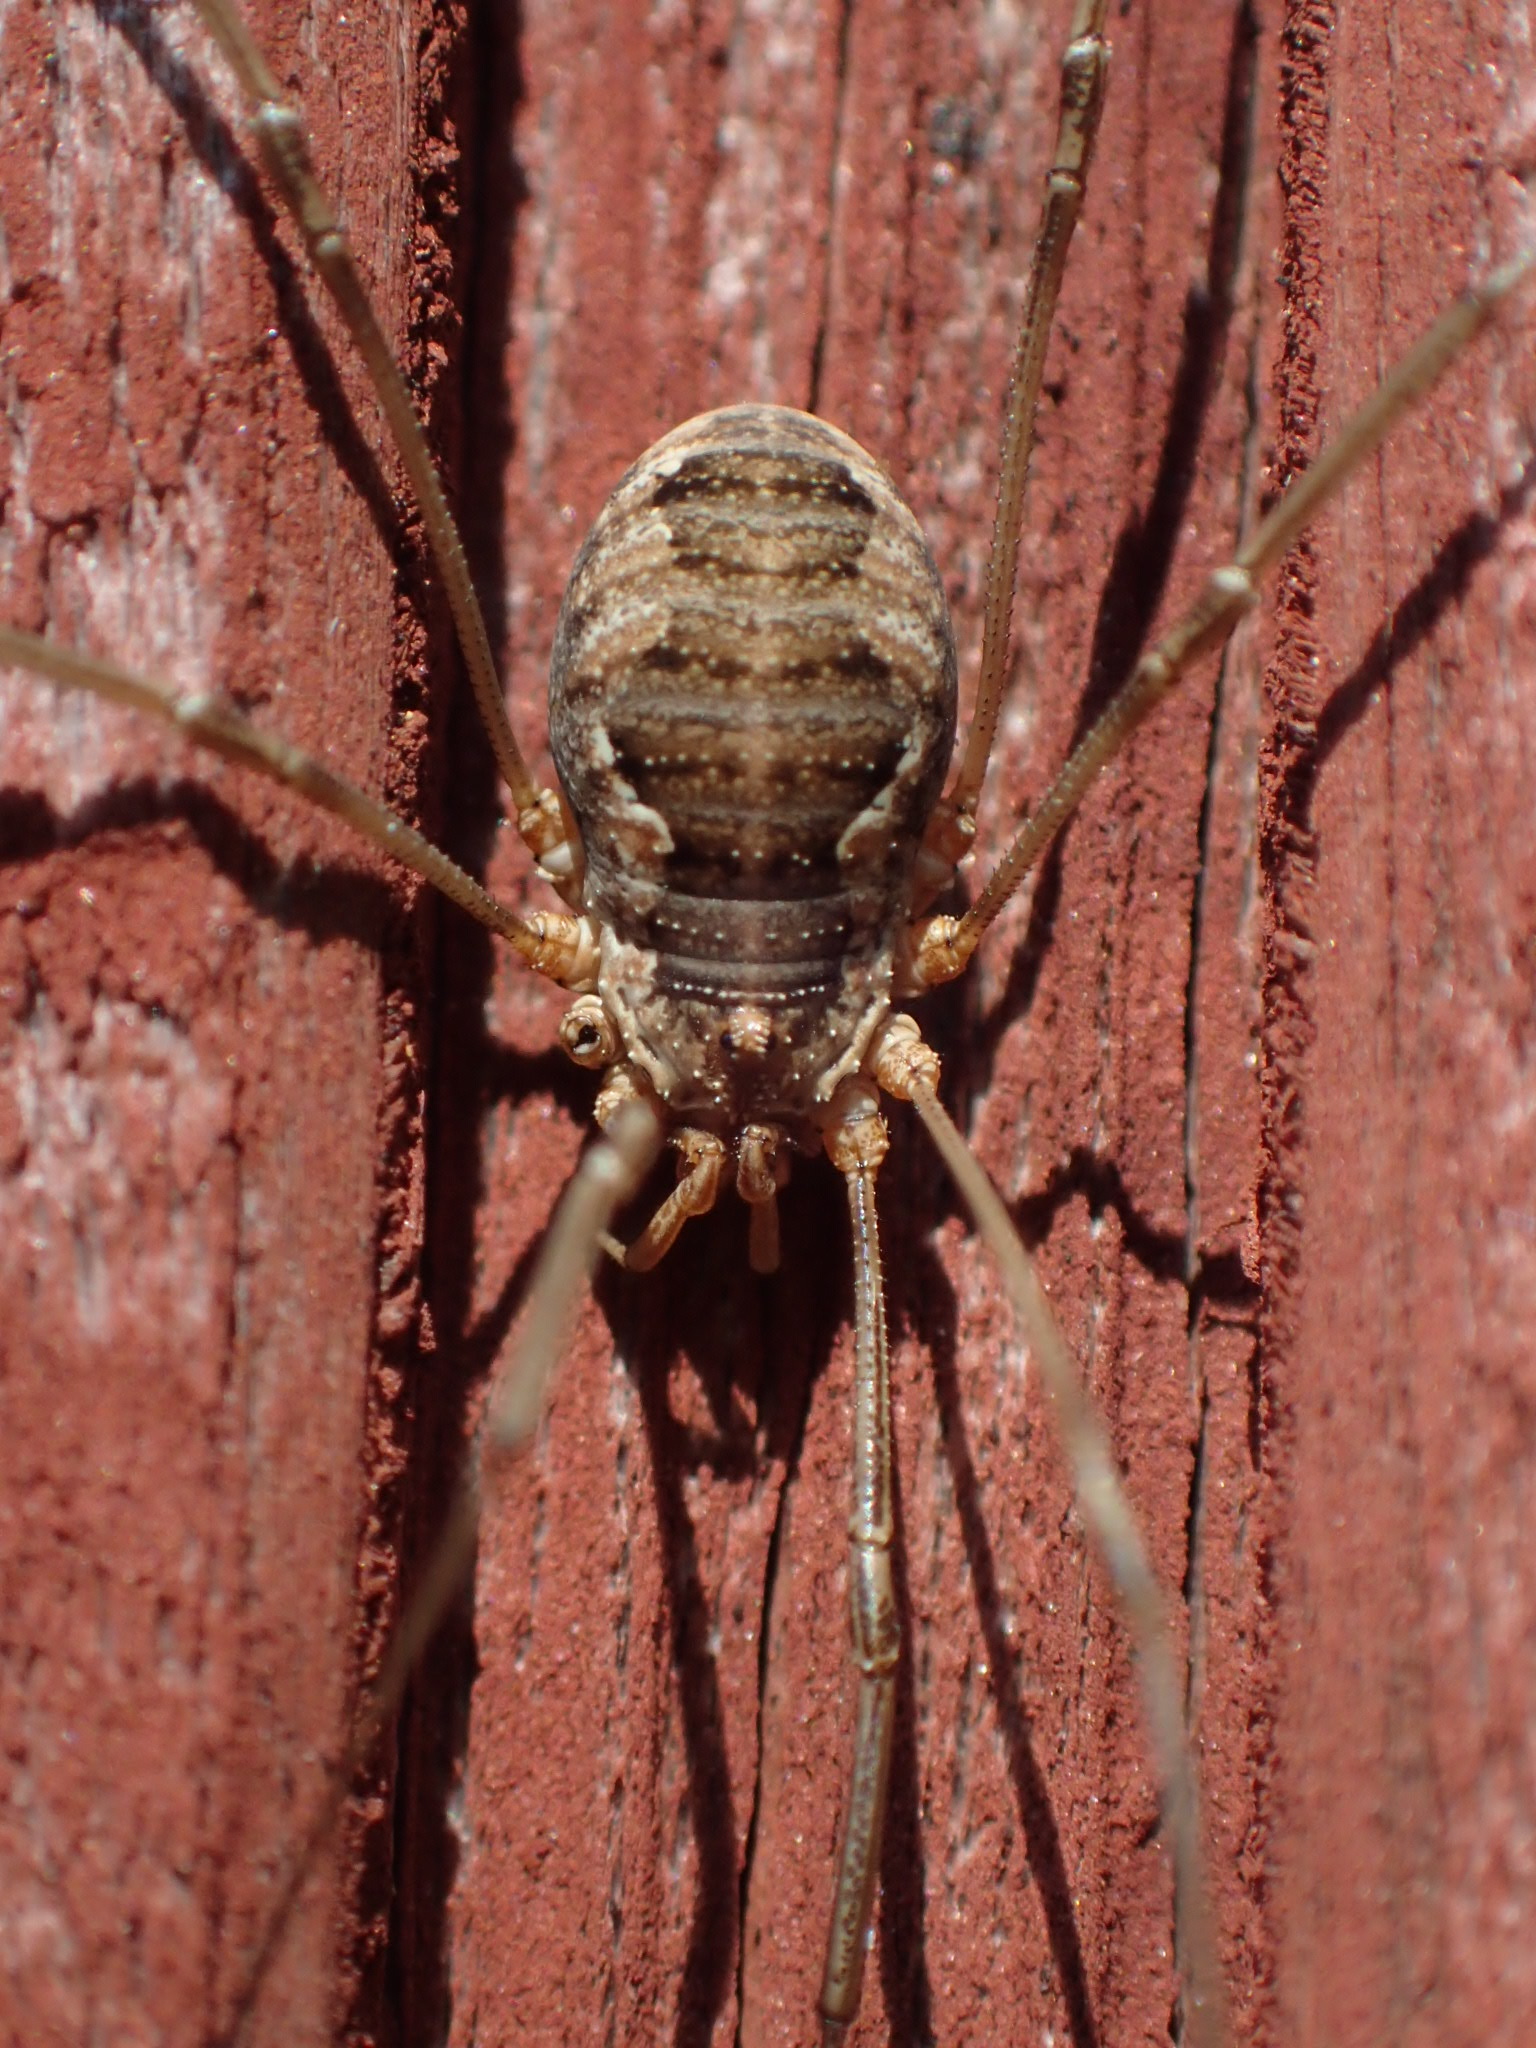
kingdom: Animalia
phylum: Arthropoda
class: Arachnida
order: Opiliones
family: Phalangiidae
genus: Phalangium
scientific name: Phalangium opilio
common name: Daddy longleg
